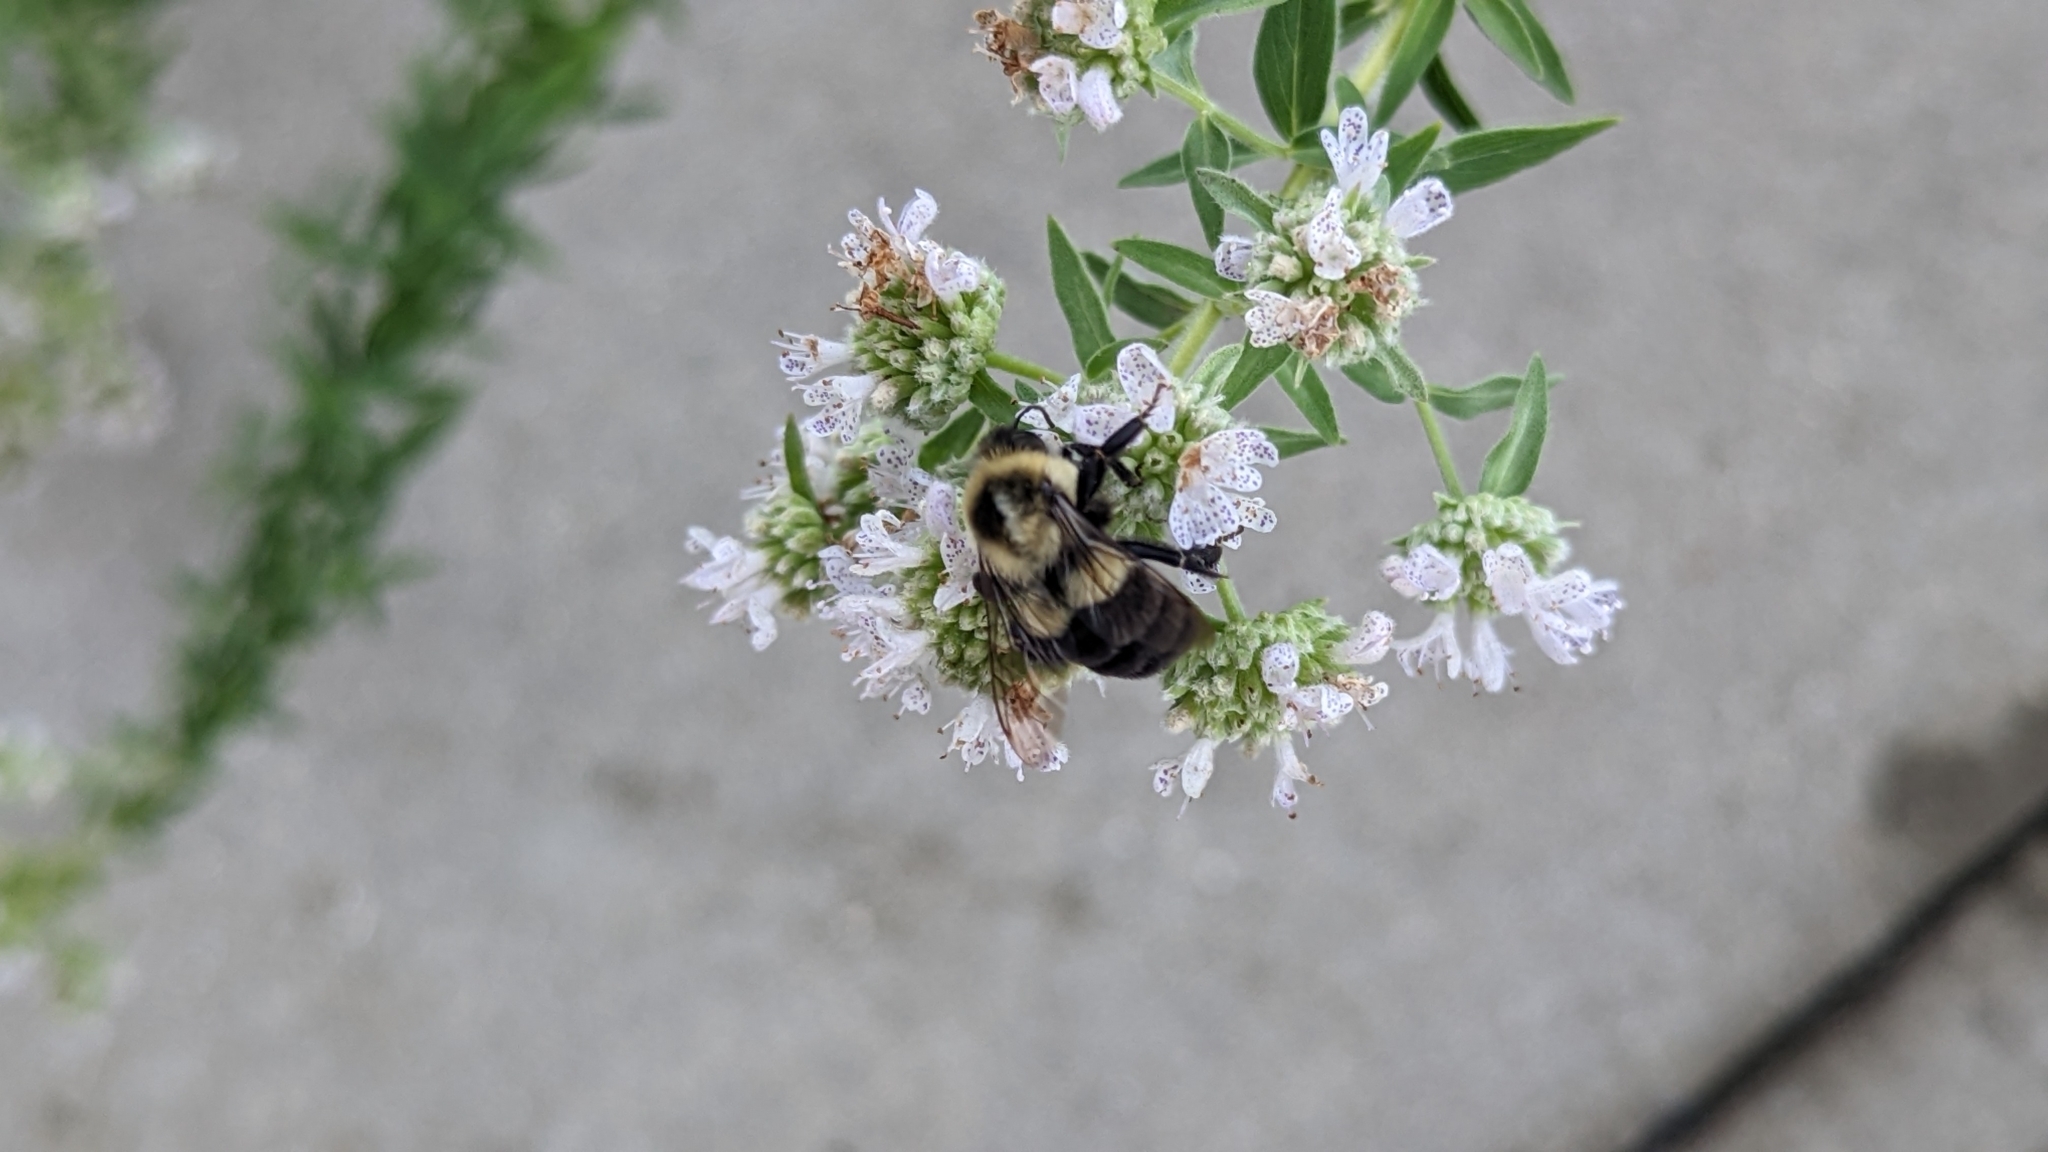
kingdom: Animalia
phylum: Arthropoda
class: Insecta
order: Hymenoptera
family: Apidae
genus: Bombus
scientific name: Bombus impatiens
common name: Common eastern bumble bee
